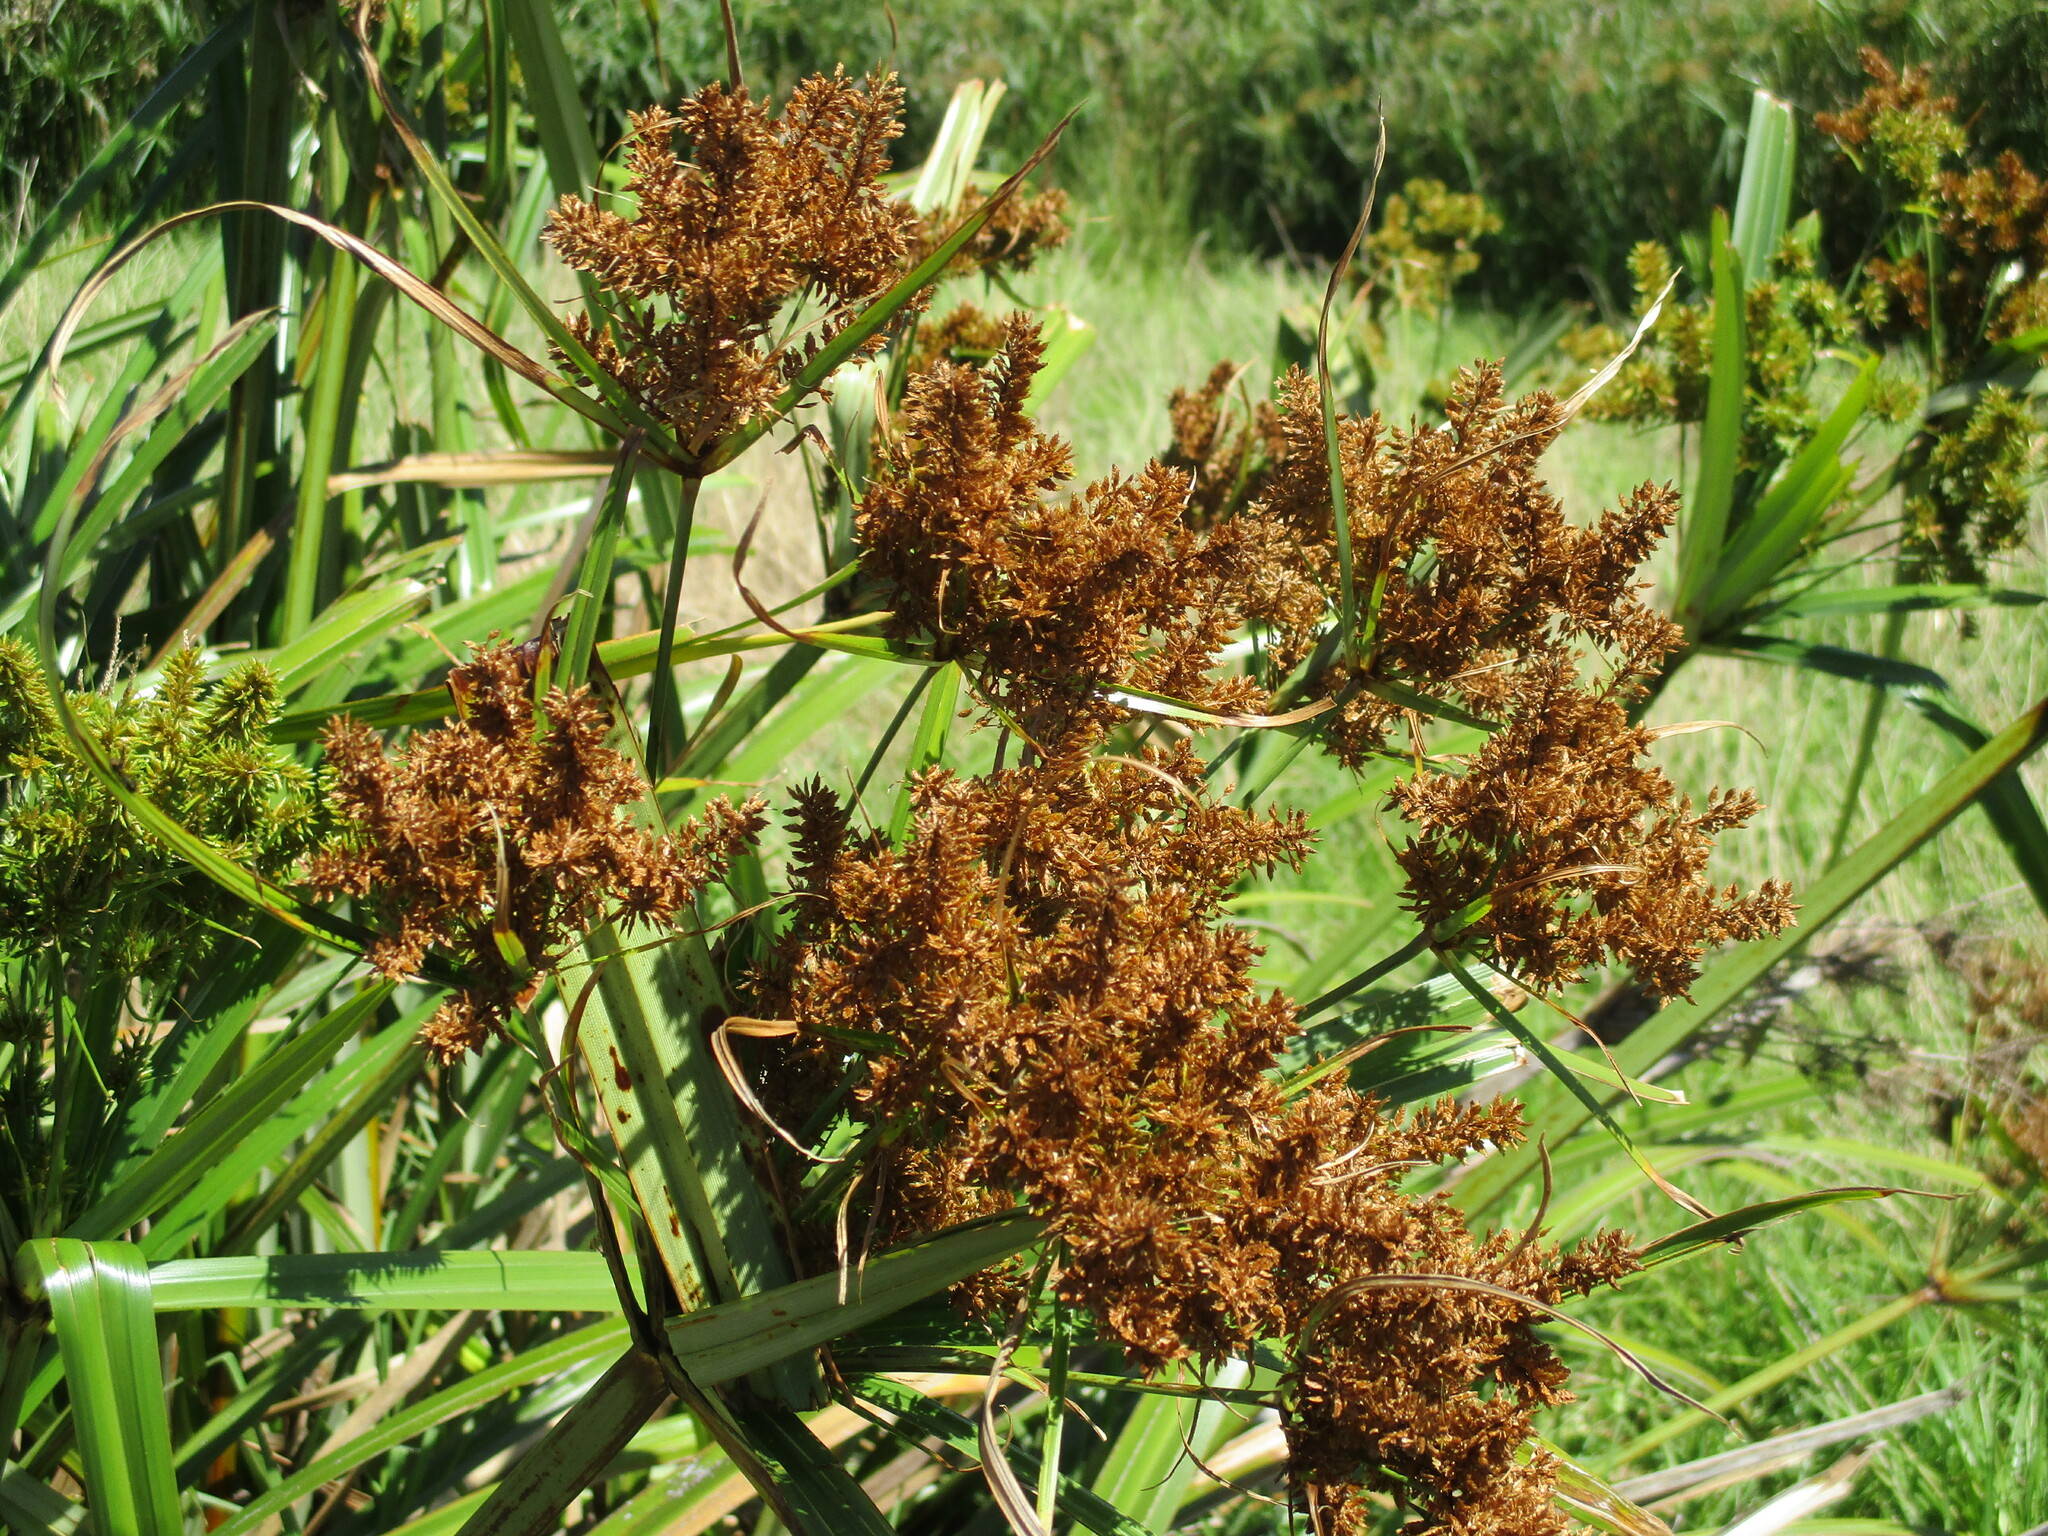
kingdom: Plantae
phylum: Tracheophyta
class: Liliopsida
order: Poales
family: Cyperaceae
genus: Cyperus
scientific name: Cyperus dives
